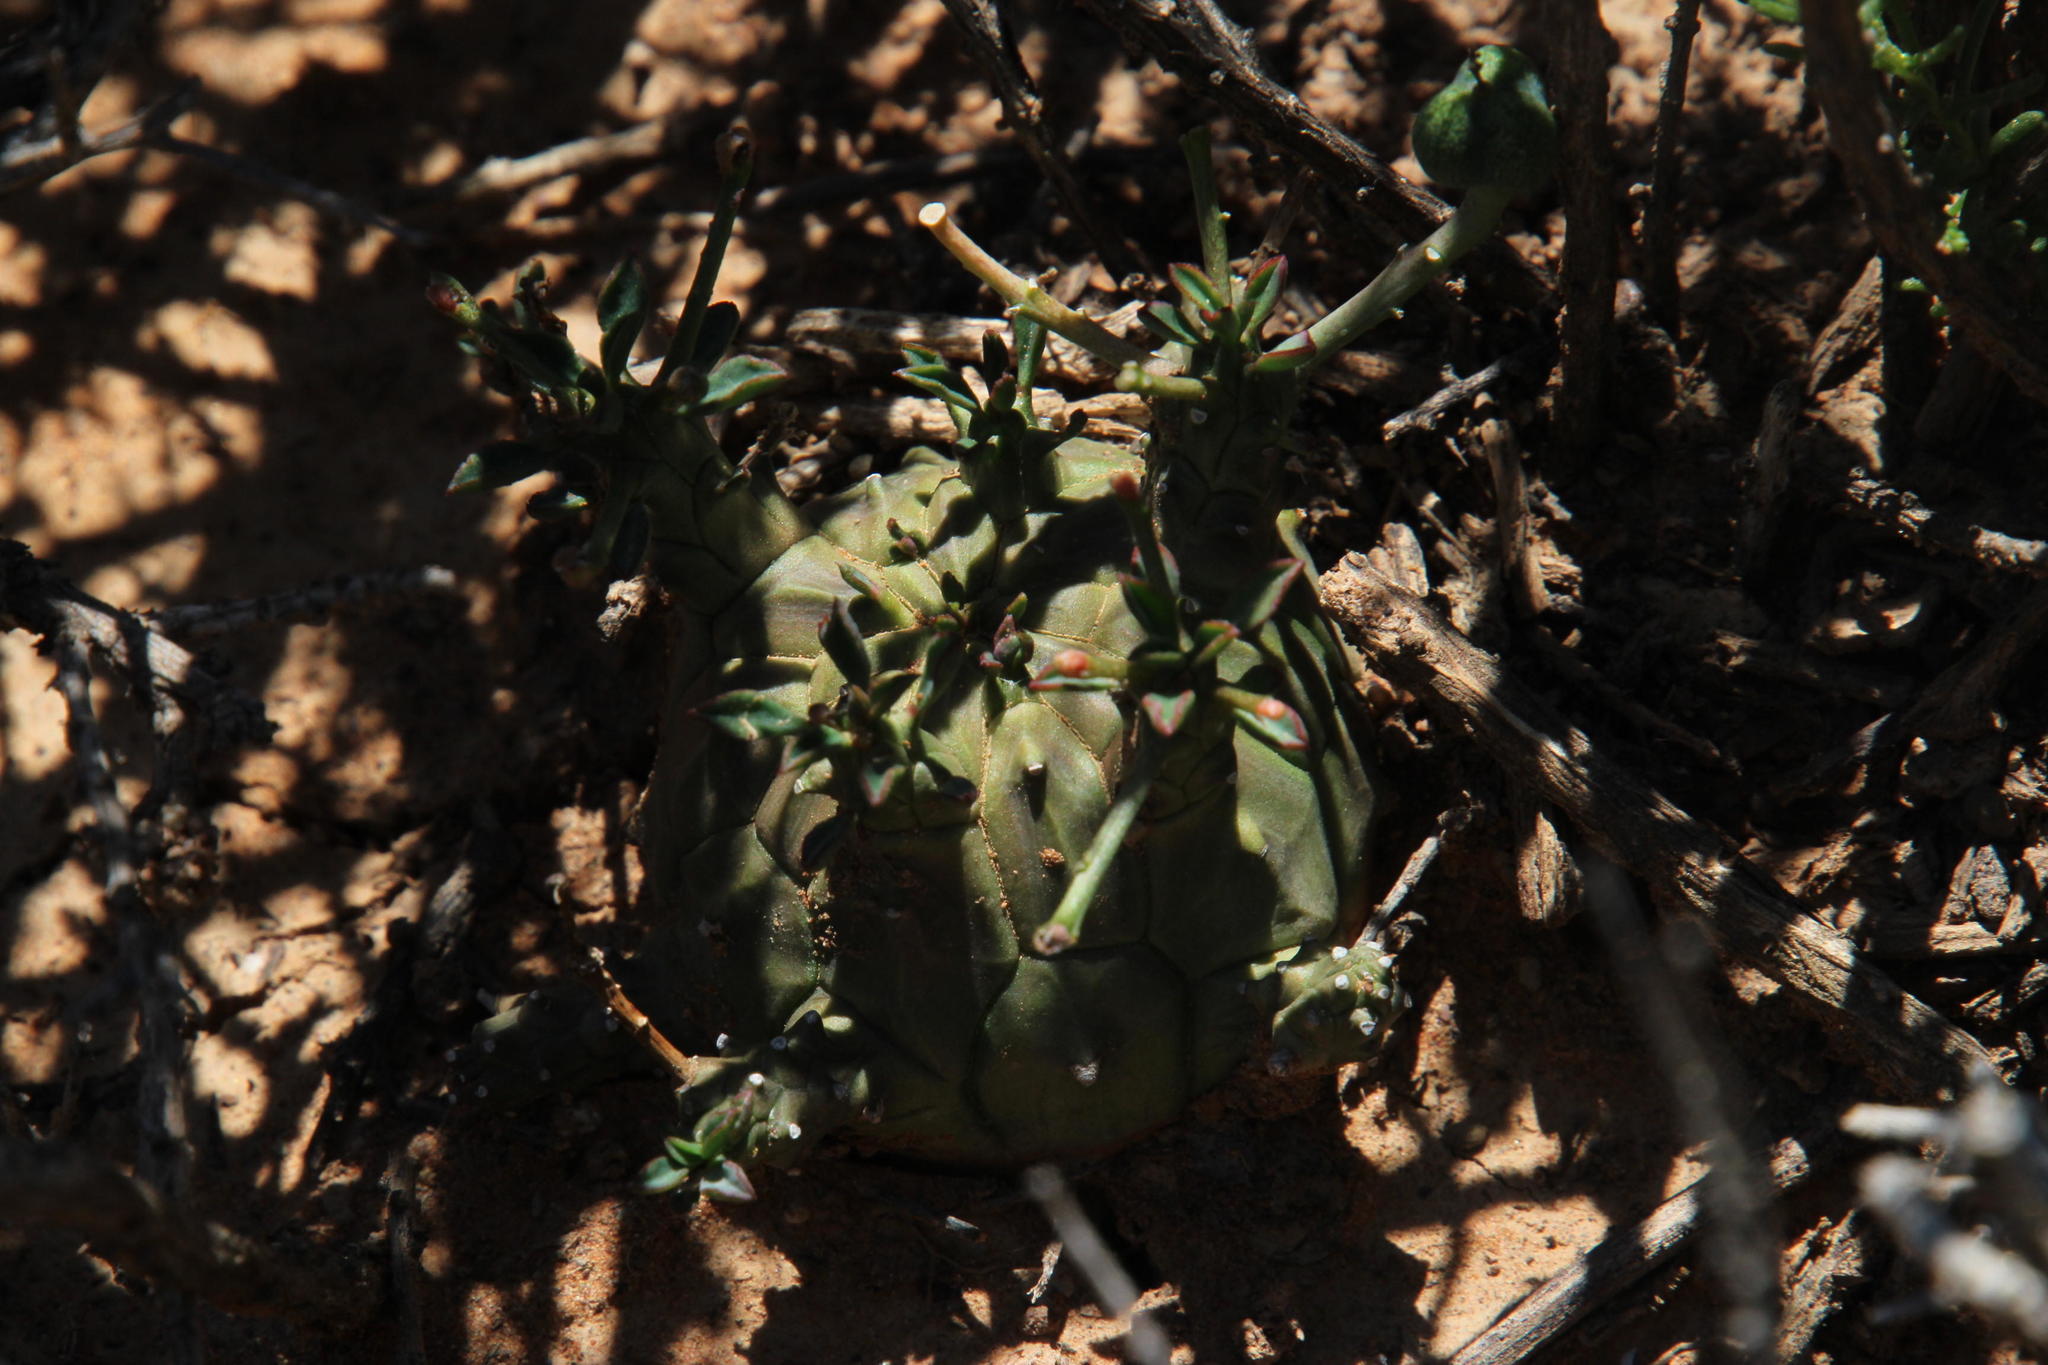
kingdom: Plantae
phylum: Tracheophyta
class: Magnoliopsida
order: Malpighiales
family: Euphorbiaceae
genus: Euphorbia
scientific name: Euphorbia decepta
